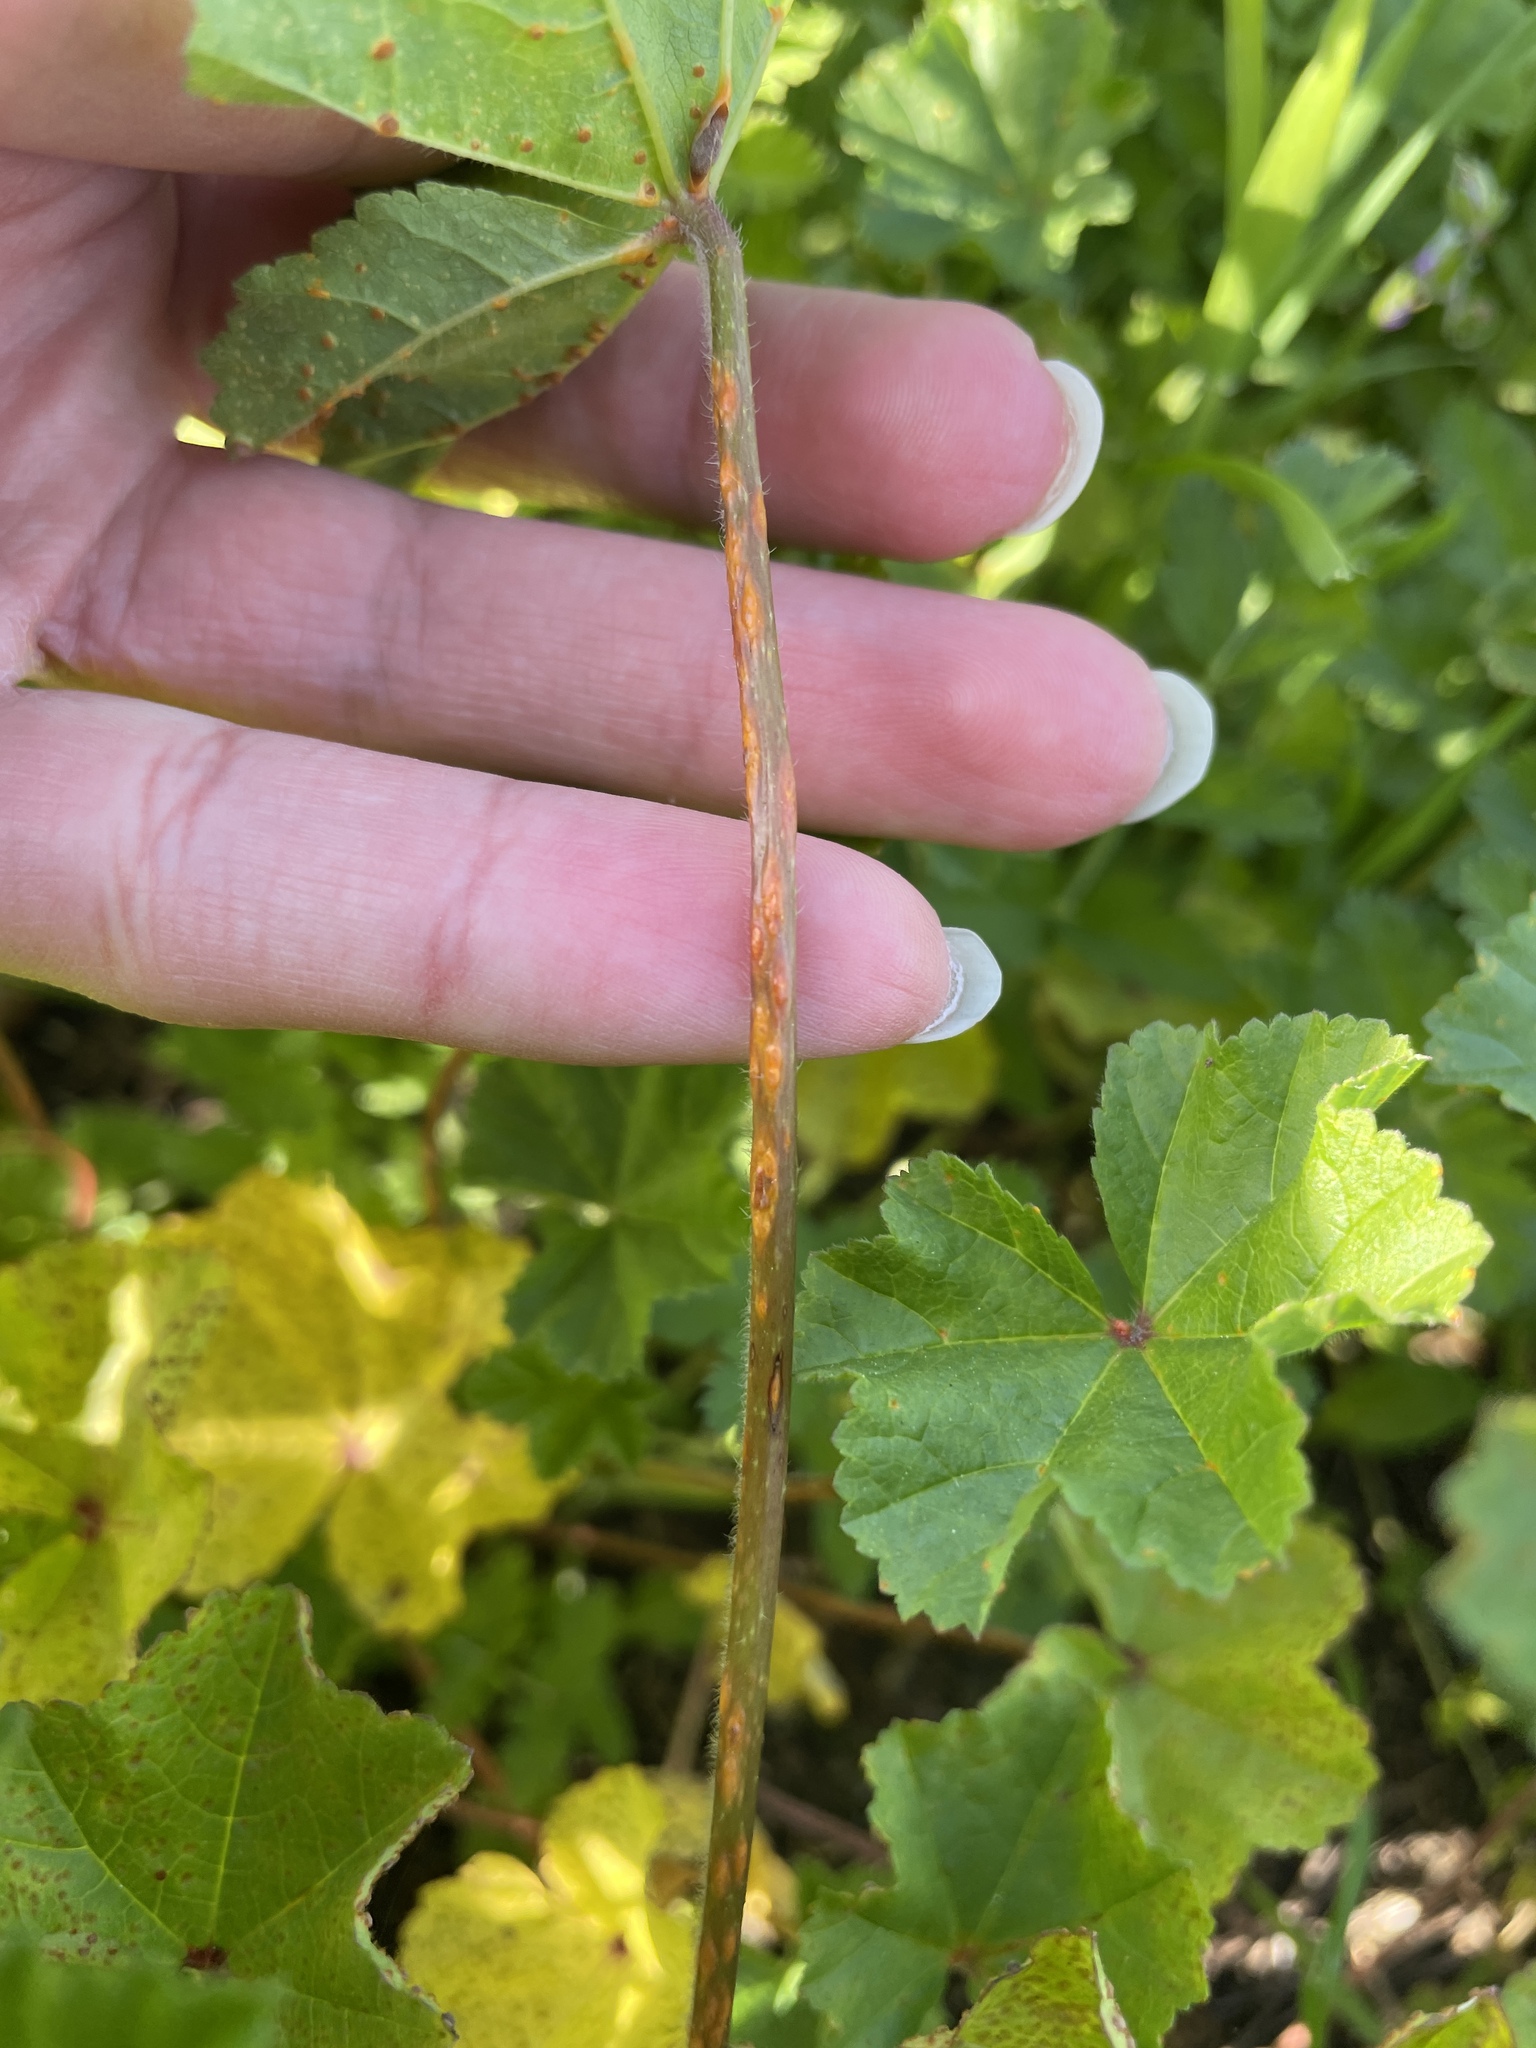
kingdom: Fungi
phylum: Basidiomycota
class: Pucciniomycetes
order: Pucciniales
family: Pucciniaceae
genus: Puccinia
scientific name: Puccinia malvacearum
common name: Hollyhock rust
